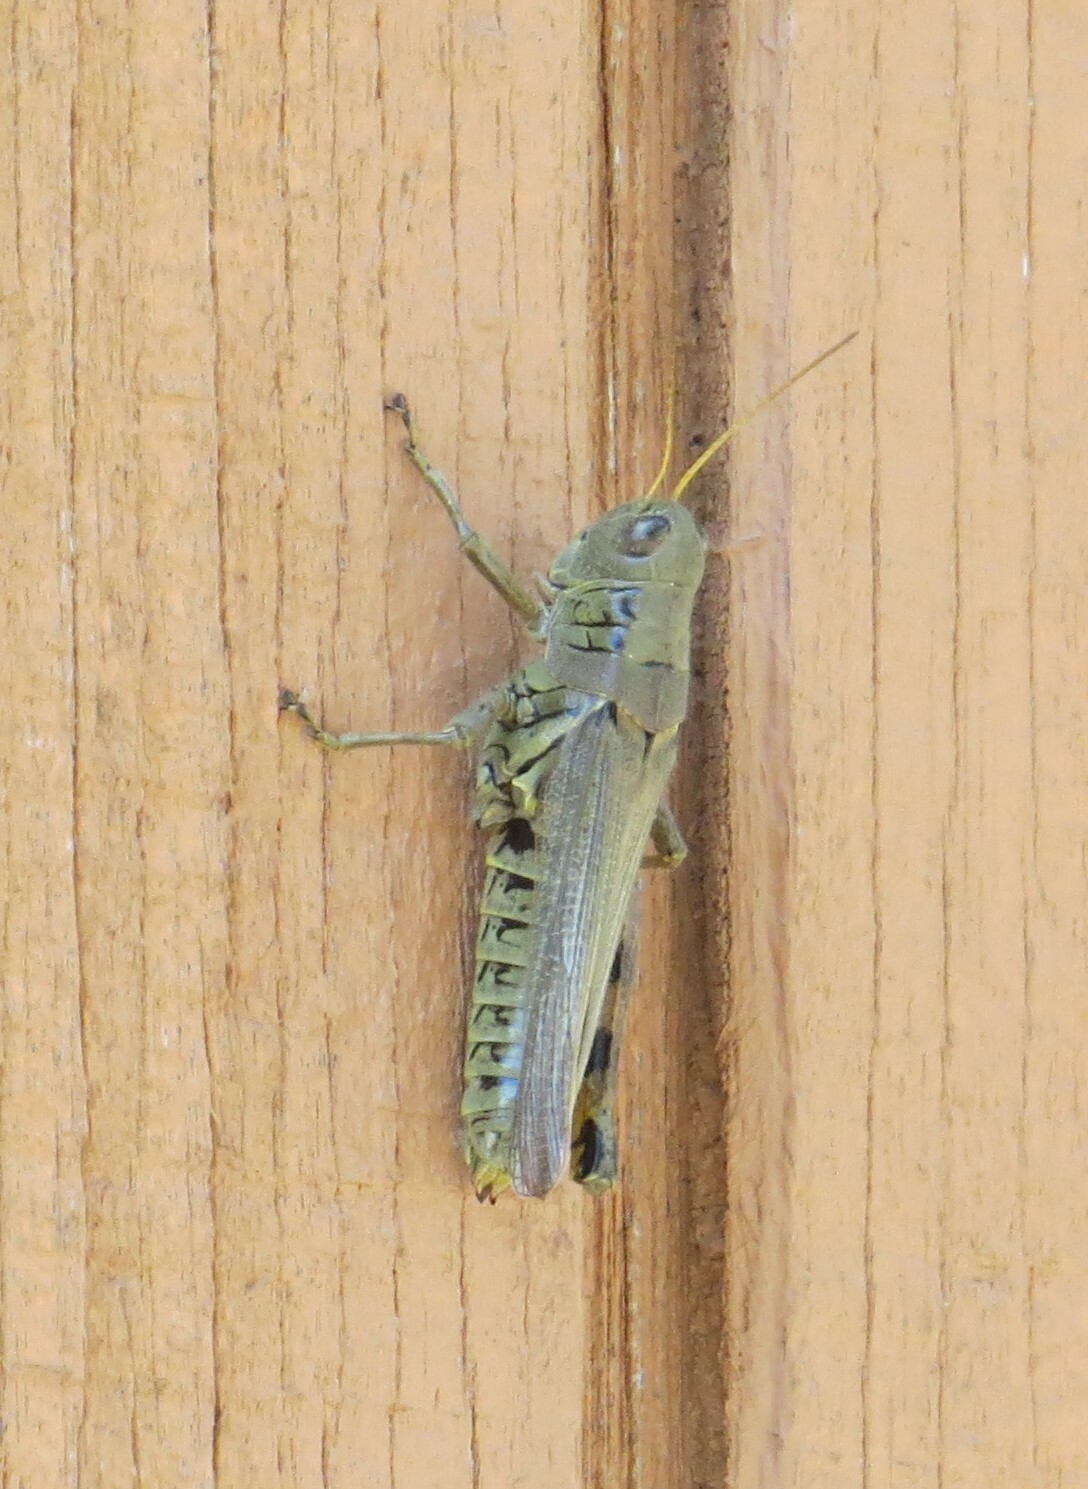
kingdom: Animalia
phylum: Arthropoda
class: Insecta
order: Orthoptera
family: Acrididae
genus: Melanoplus
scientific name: Melanoplus differentialis
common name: Differential grasshopper
